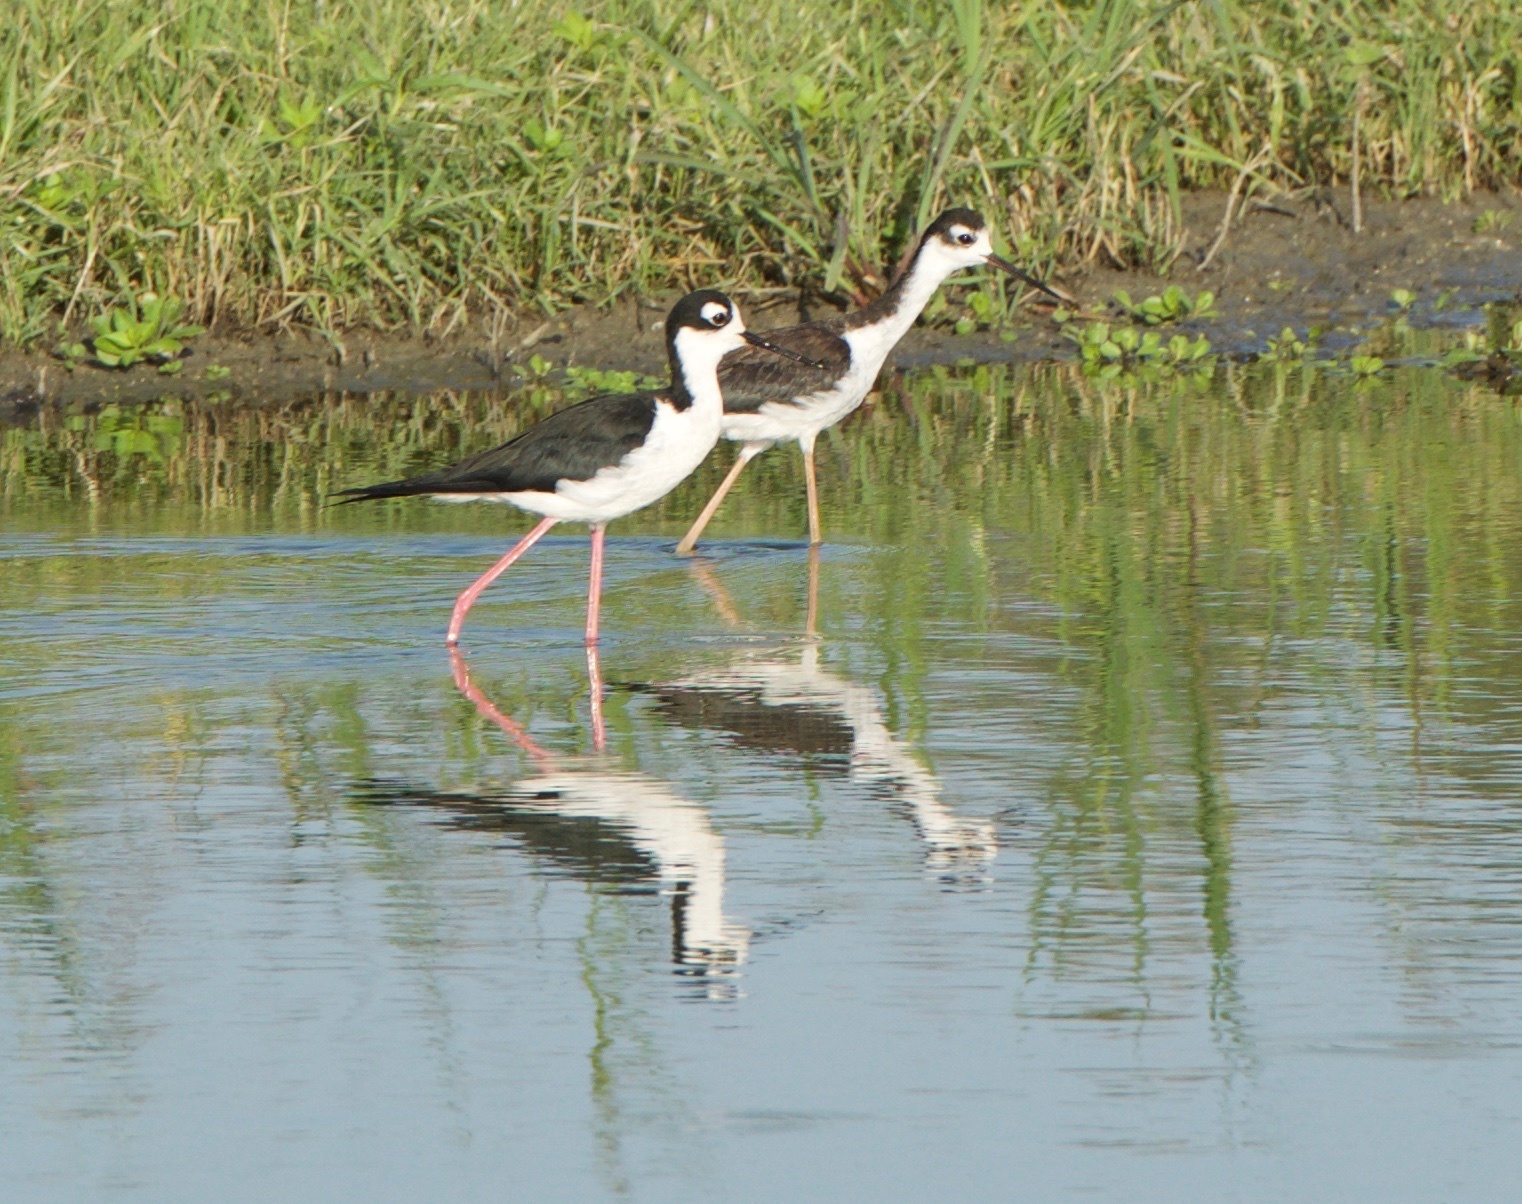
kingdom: Animalia
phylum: Chordata
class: Aves
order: Charadriiformes
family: Recurvirostridae
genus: Himantopus
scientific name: Himantopus mexicanus
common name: Black-necked stilt
